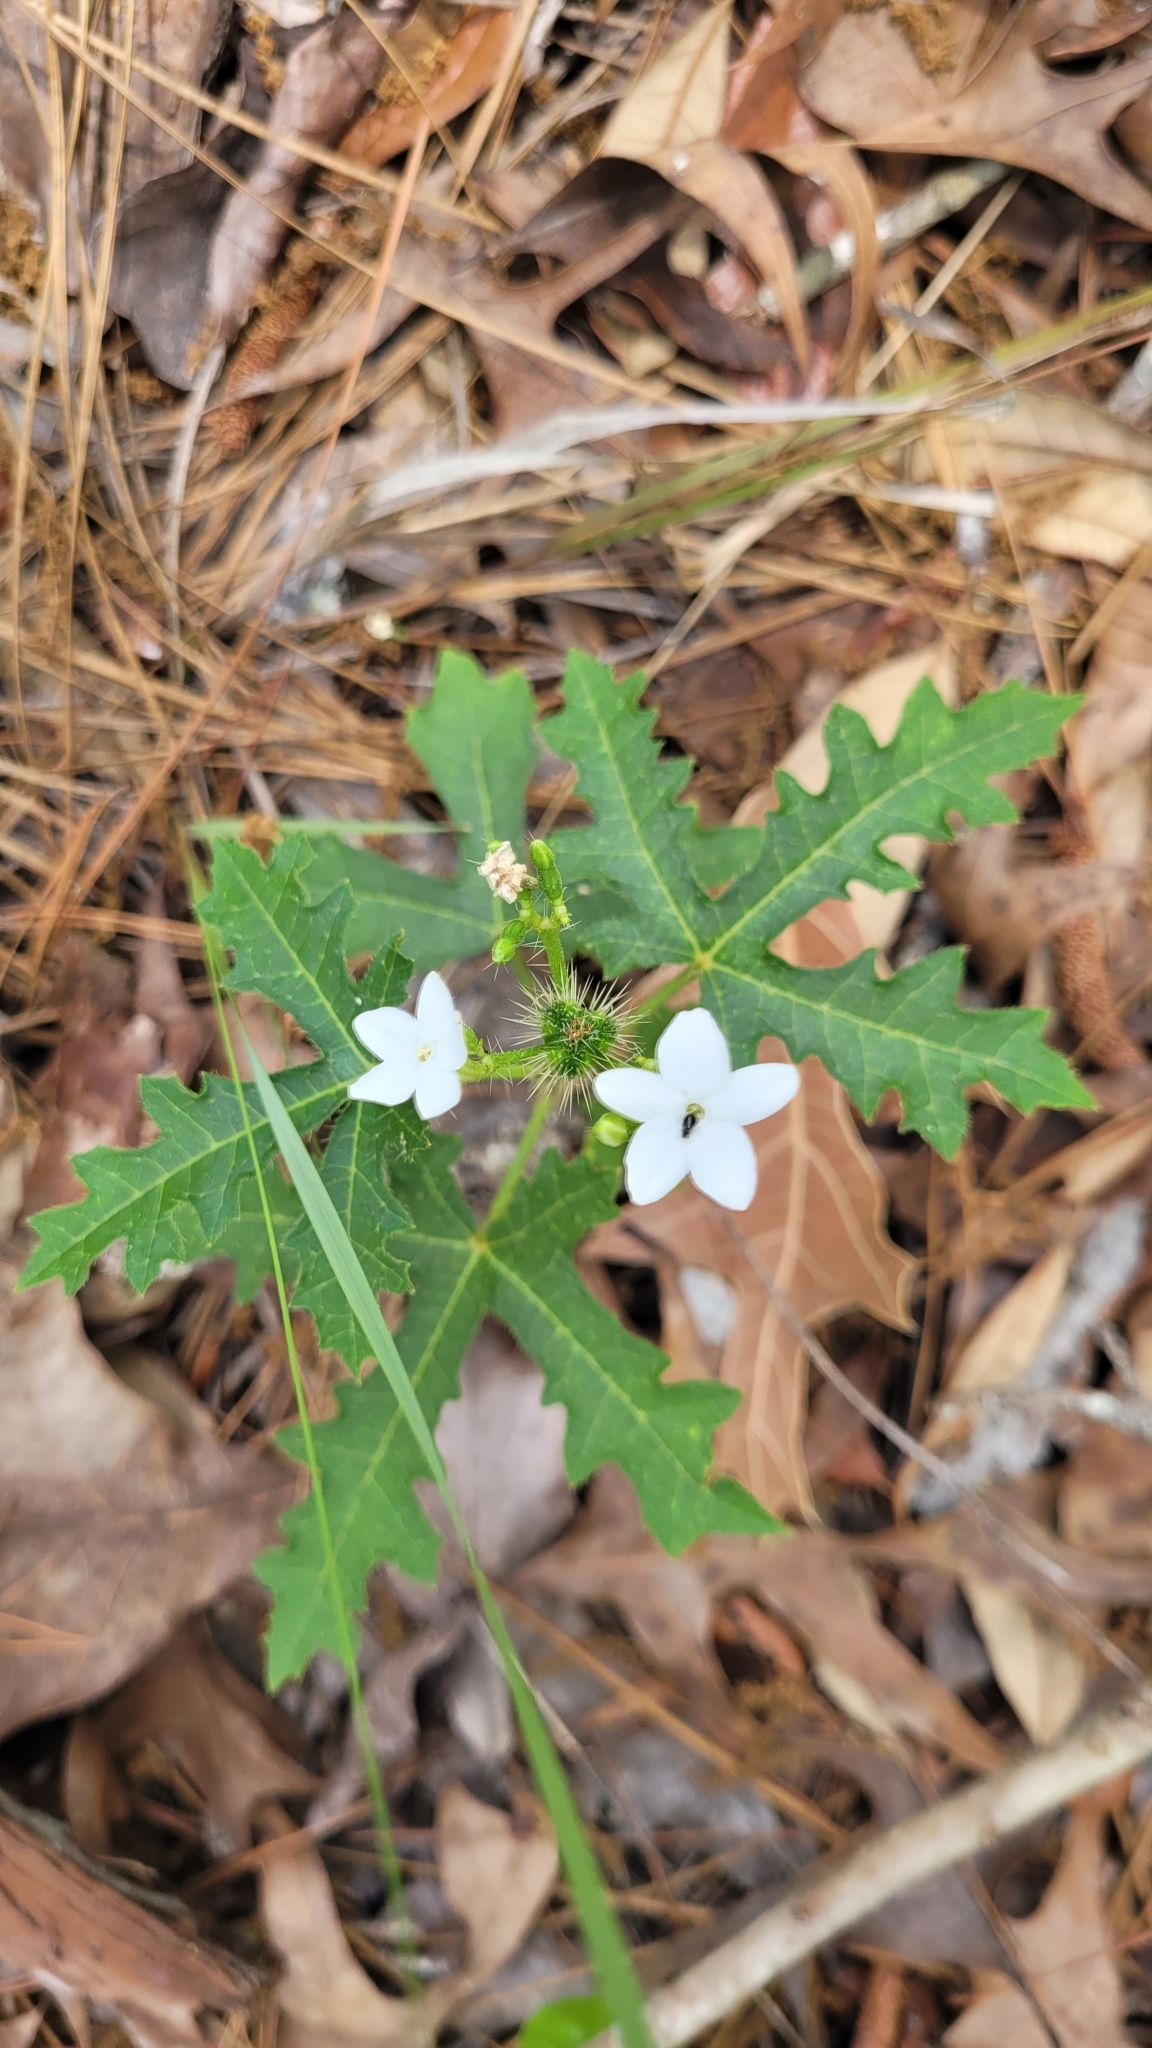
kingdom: Plantae
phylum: Tracheophyta
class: Magnoliopsida
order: Malpighiales
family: Euphorbiaceae
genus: Cnidoscolus
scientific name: Cnidoscolus stimulosus
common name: Bull-nettle
